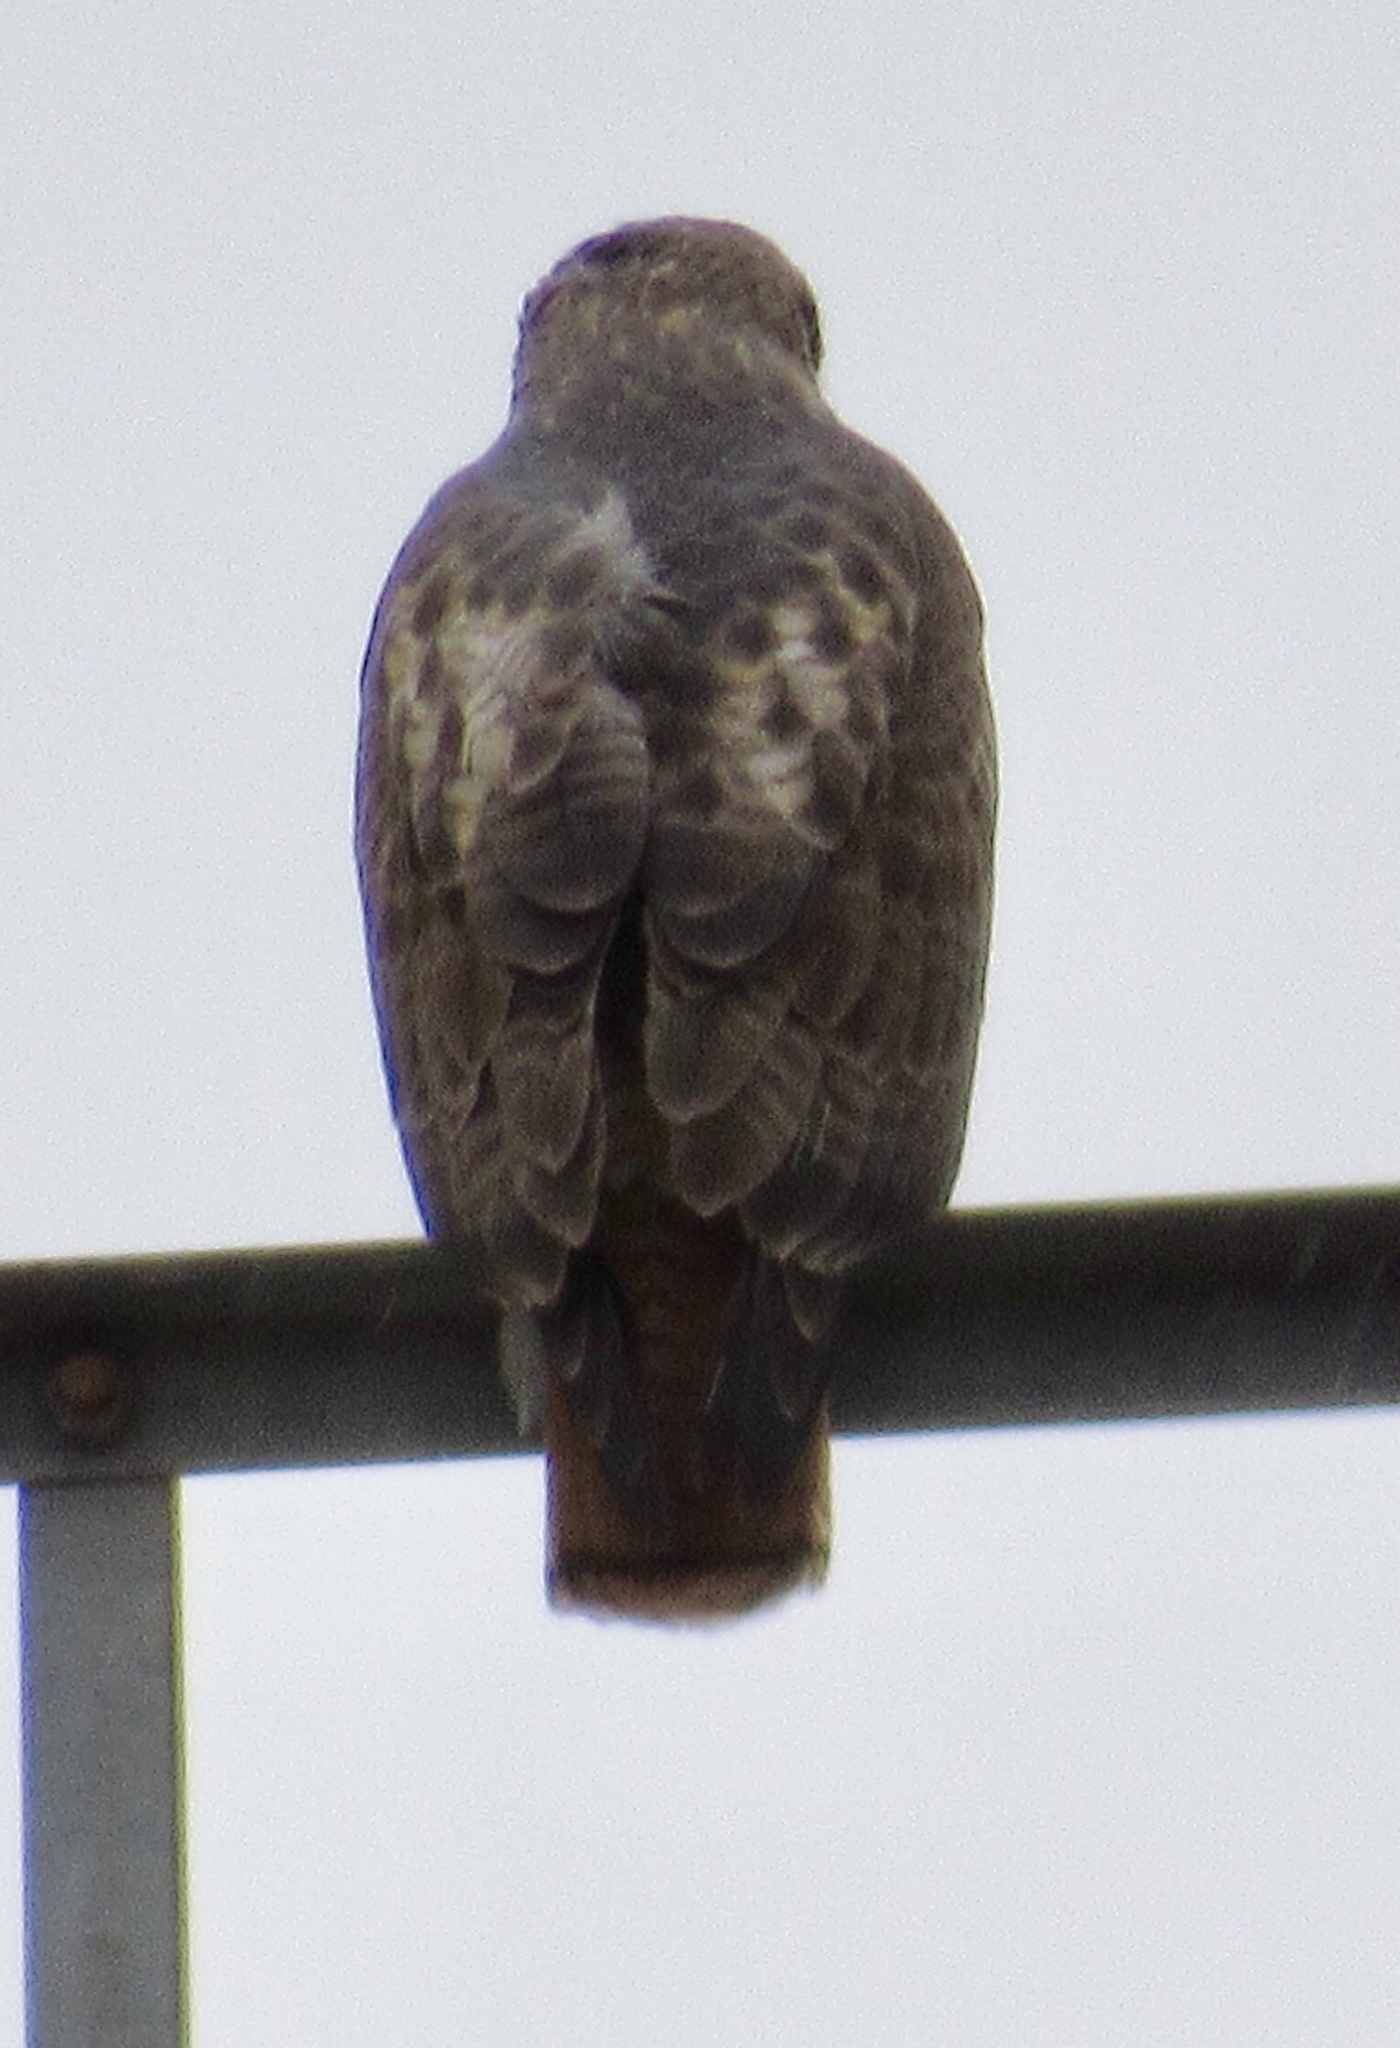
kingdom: Animalia
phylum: Chordata
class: Aves
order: Accipitriformes
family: Accipitridae
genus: Buteo
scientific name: Buteo jamaicensis
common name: Red-tailed hawk
